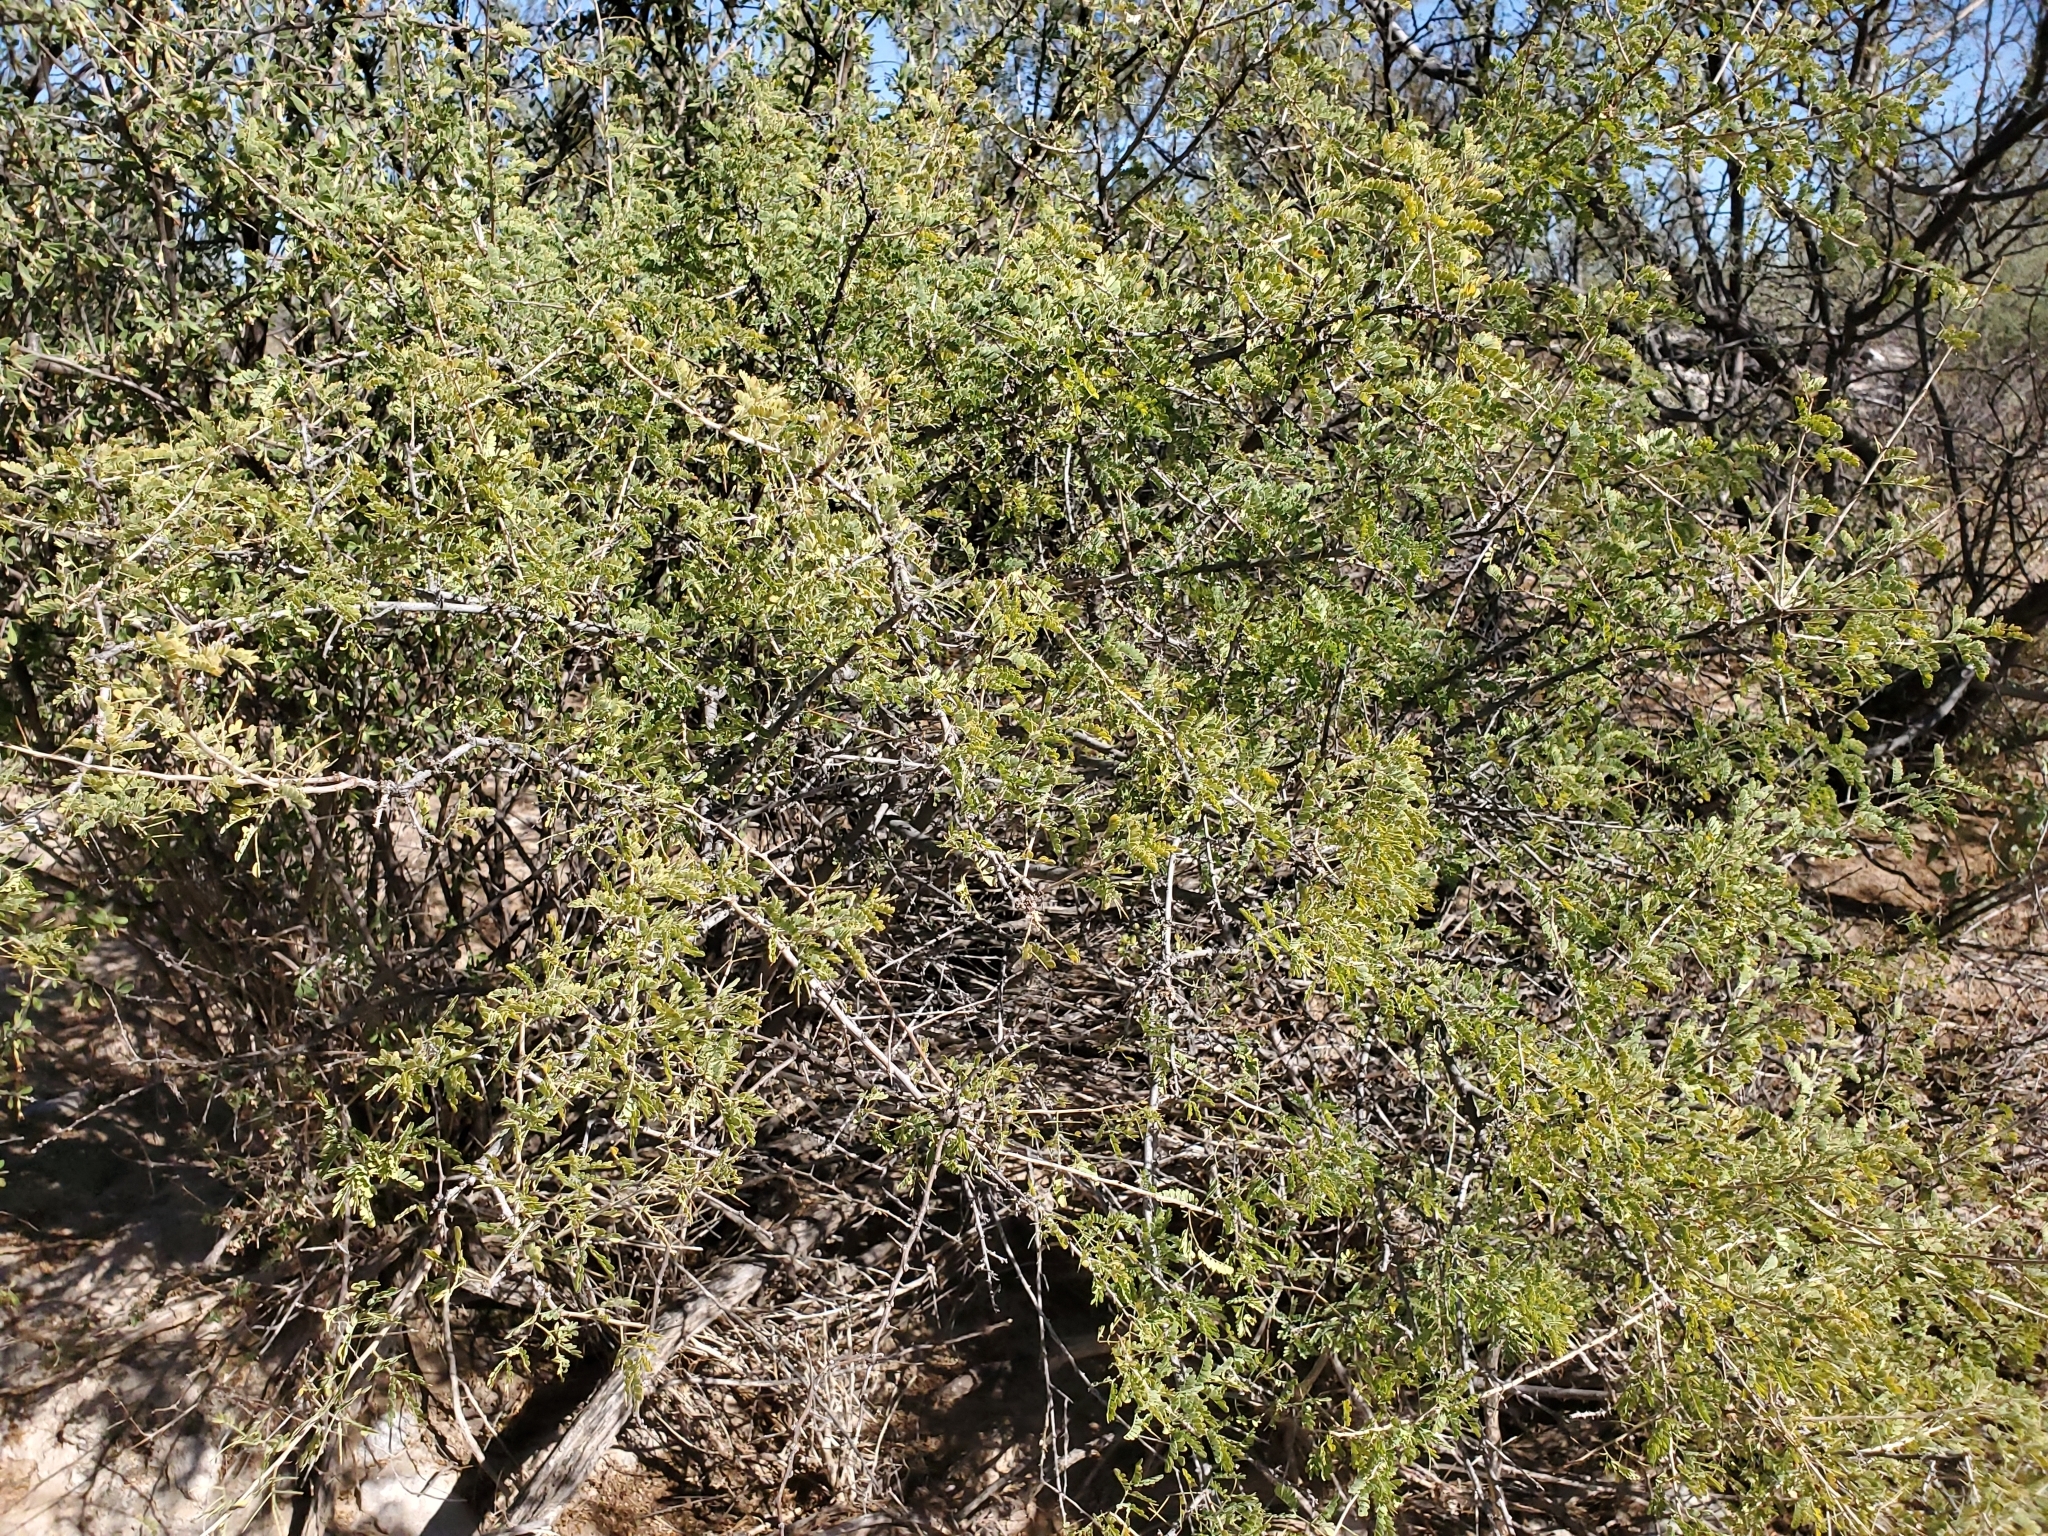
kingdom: Plantae
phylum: Tracheophyta
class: Magnoliopsida
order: Fabales
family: Fabaceae
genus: Senegalia
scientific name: Senegalia greggii
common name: Texas-mimosa
